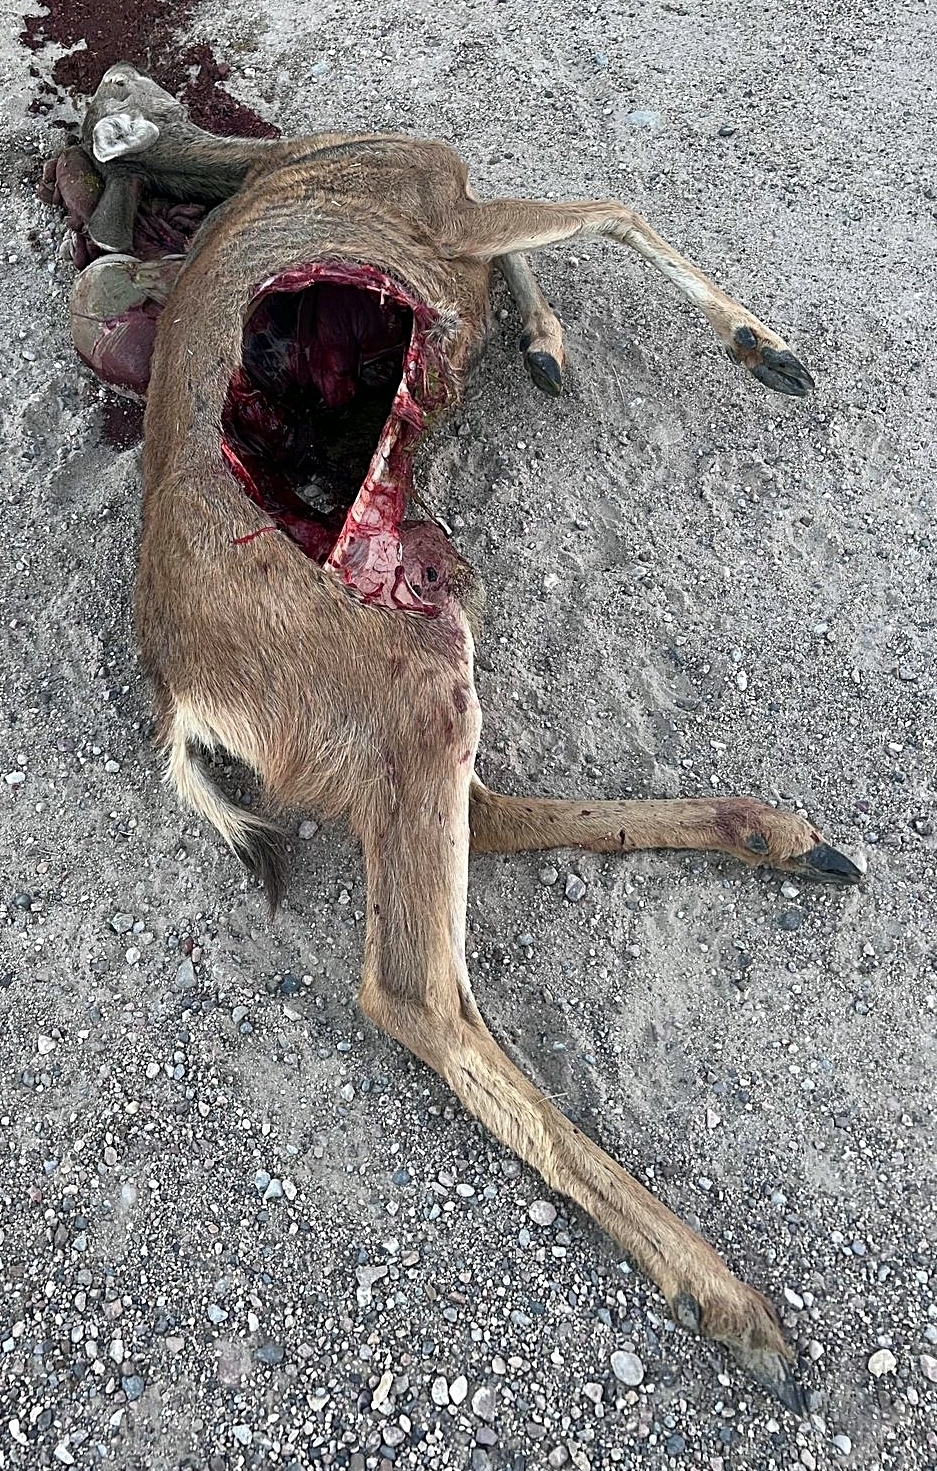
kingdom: Animalia
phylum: Chordata
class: Mammalia
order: Artiodactyla
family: Cervidae
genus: Odocoileus
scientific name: Odocoileus hemionus
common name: Mule deer
